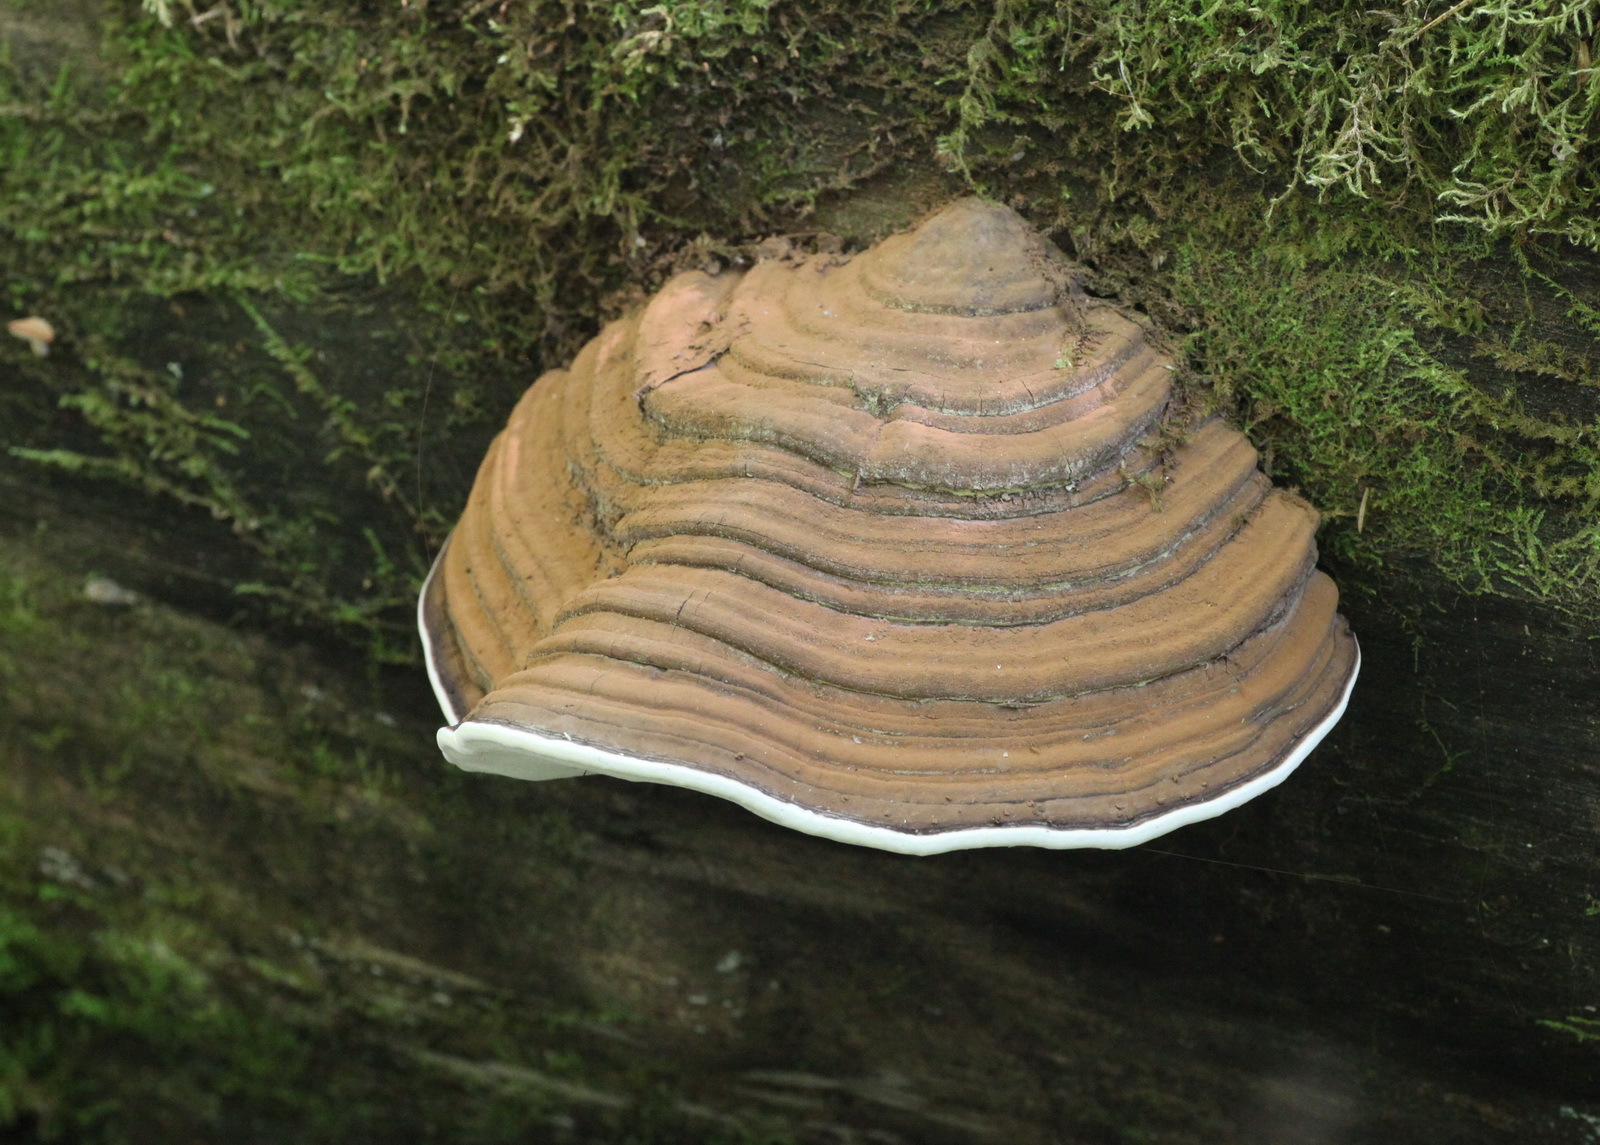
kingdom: Fungi
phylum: Basidiomycota
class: Agaricomycetes
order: Polyporales
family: Polyporaceae
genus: Ganoderma
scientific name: Ganoderma applanatum
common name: Artist's bracket
